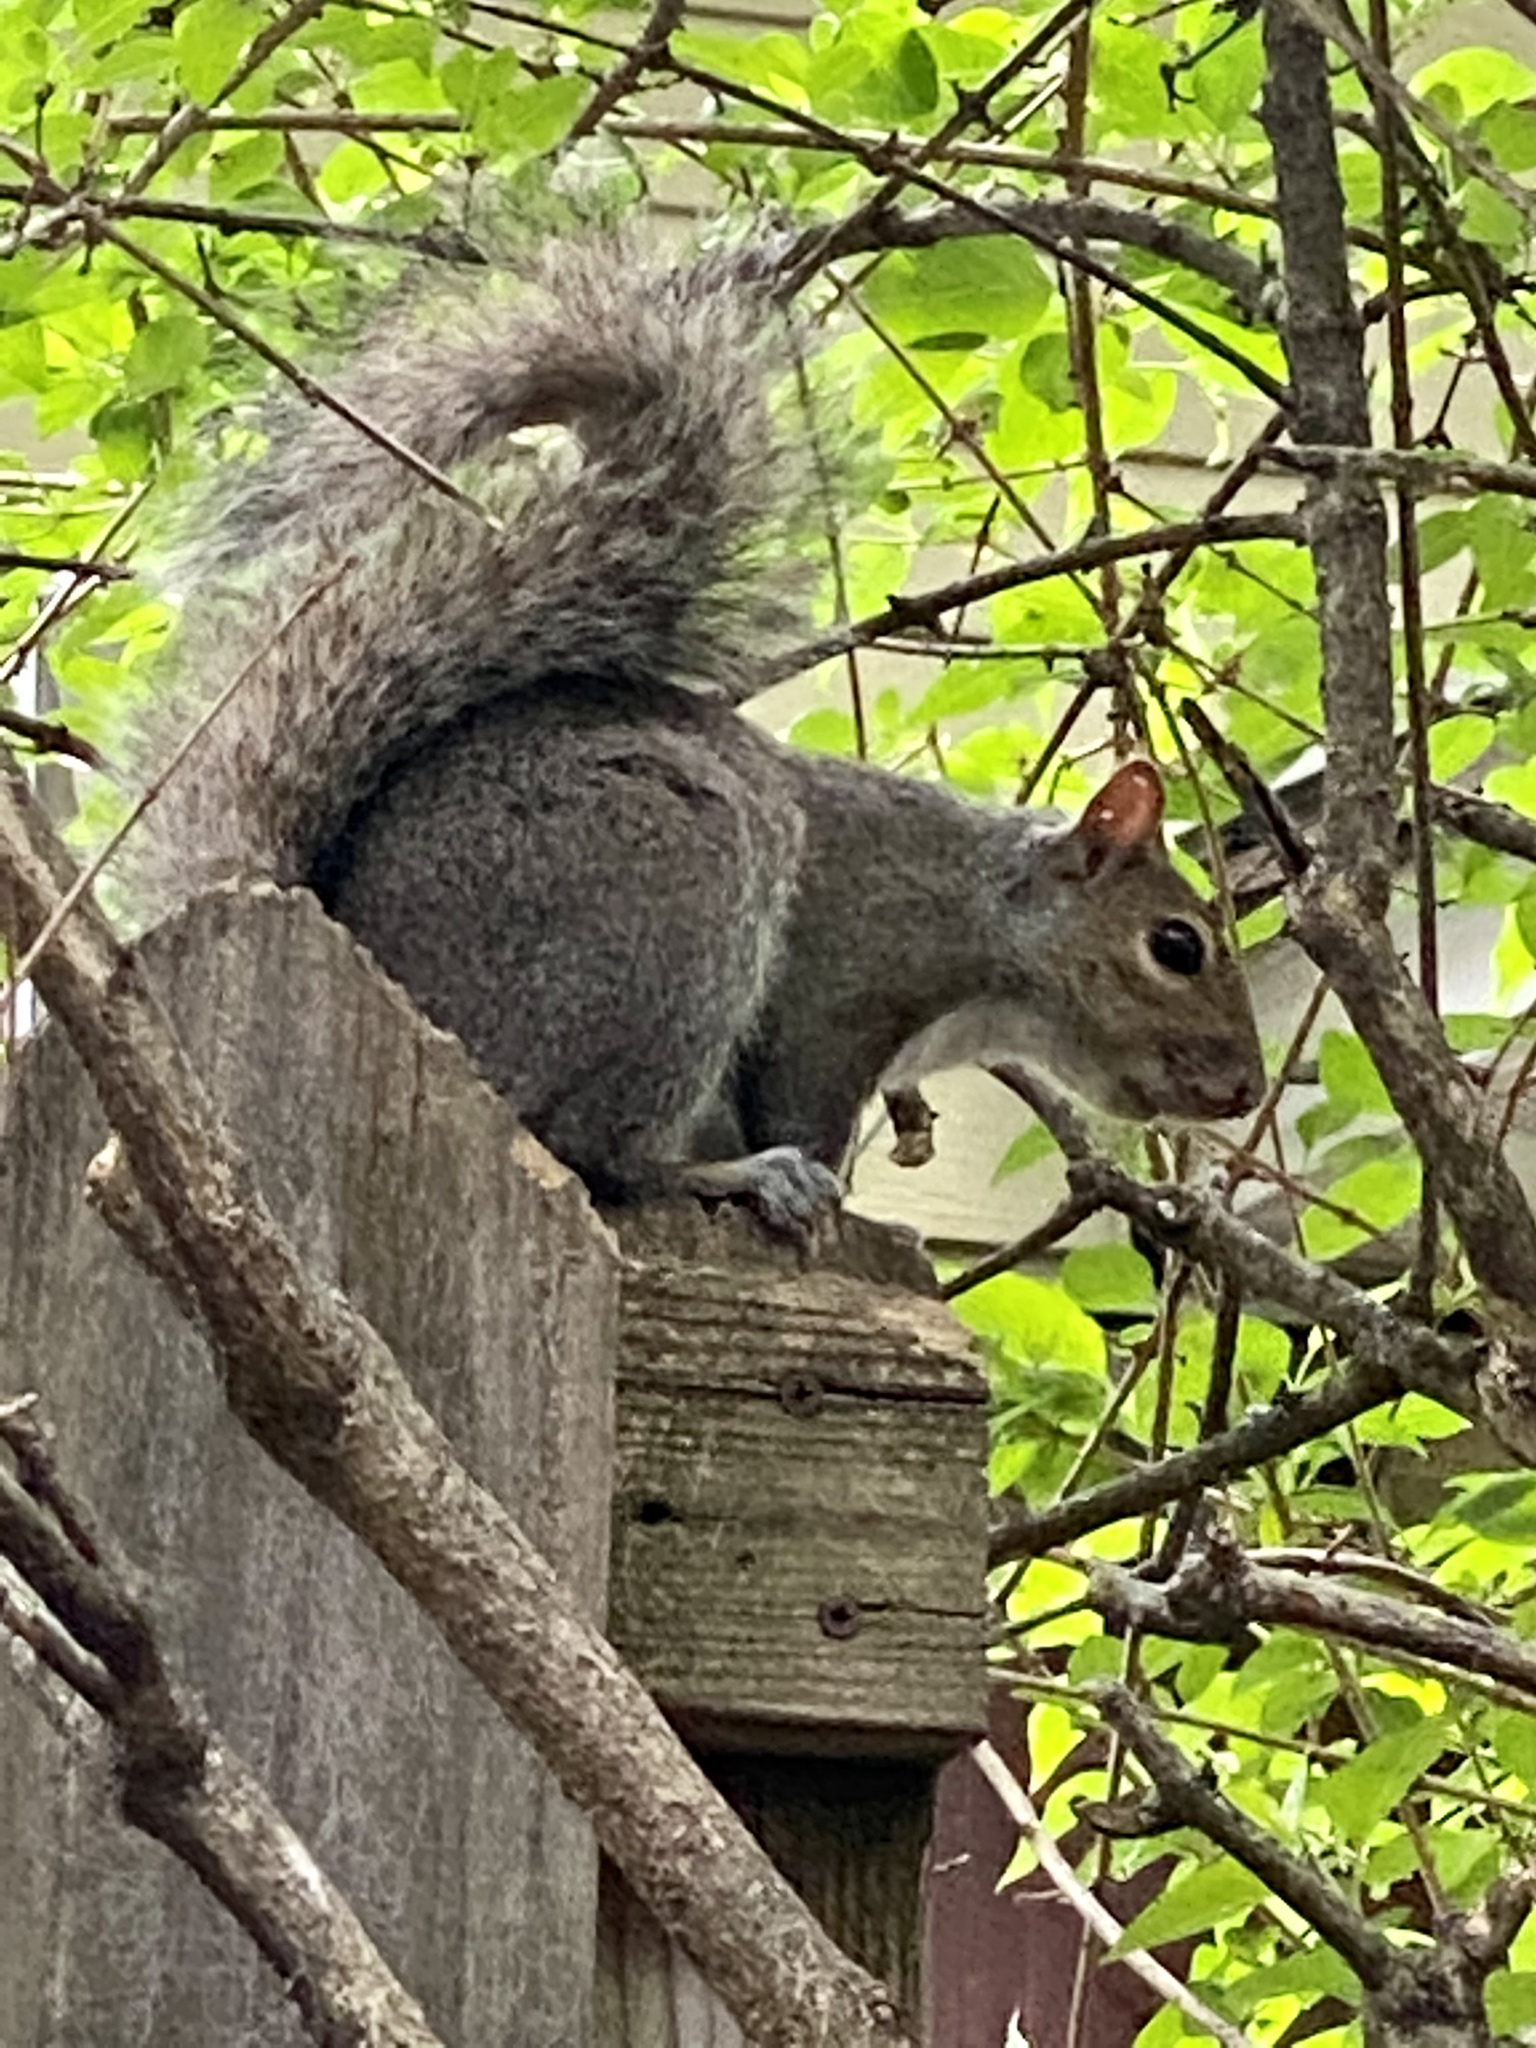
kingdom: Animalia
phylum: Chordata
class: Mammalia
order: Rodentia
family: Sciuridae
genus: Sciurus
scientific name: Sciurus carolinensis
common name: Eastern gray squirrel
